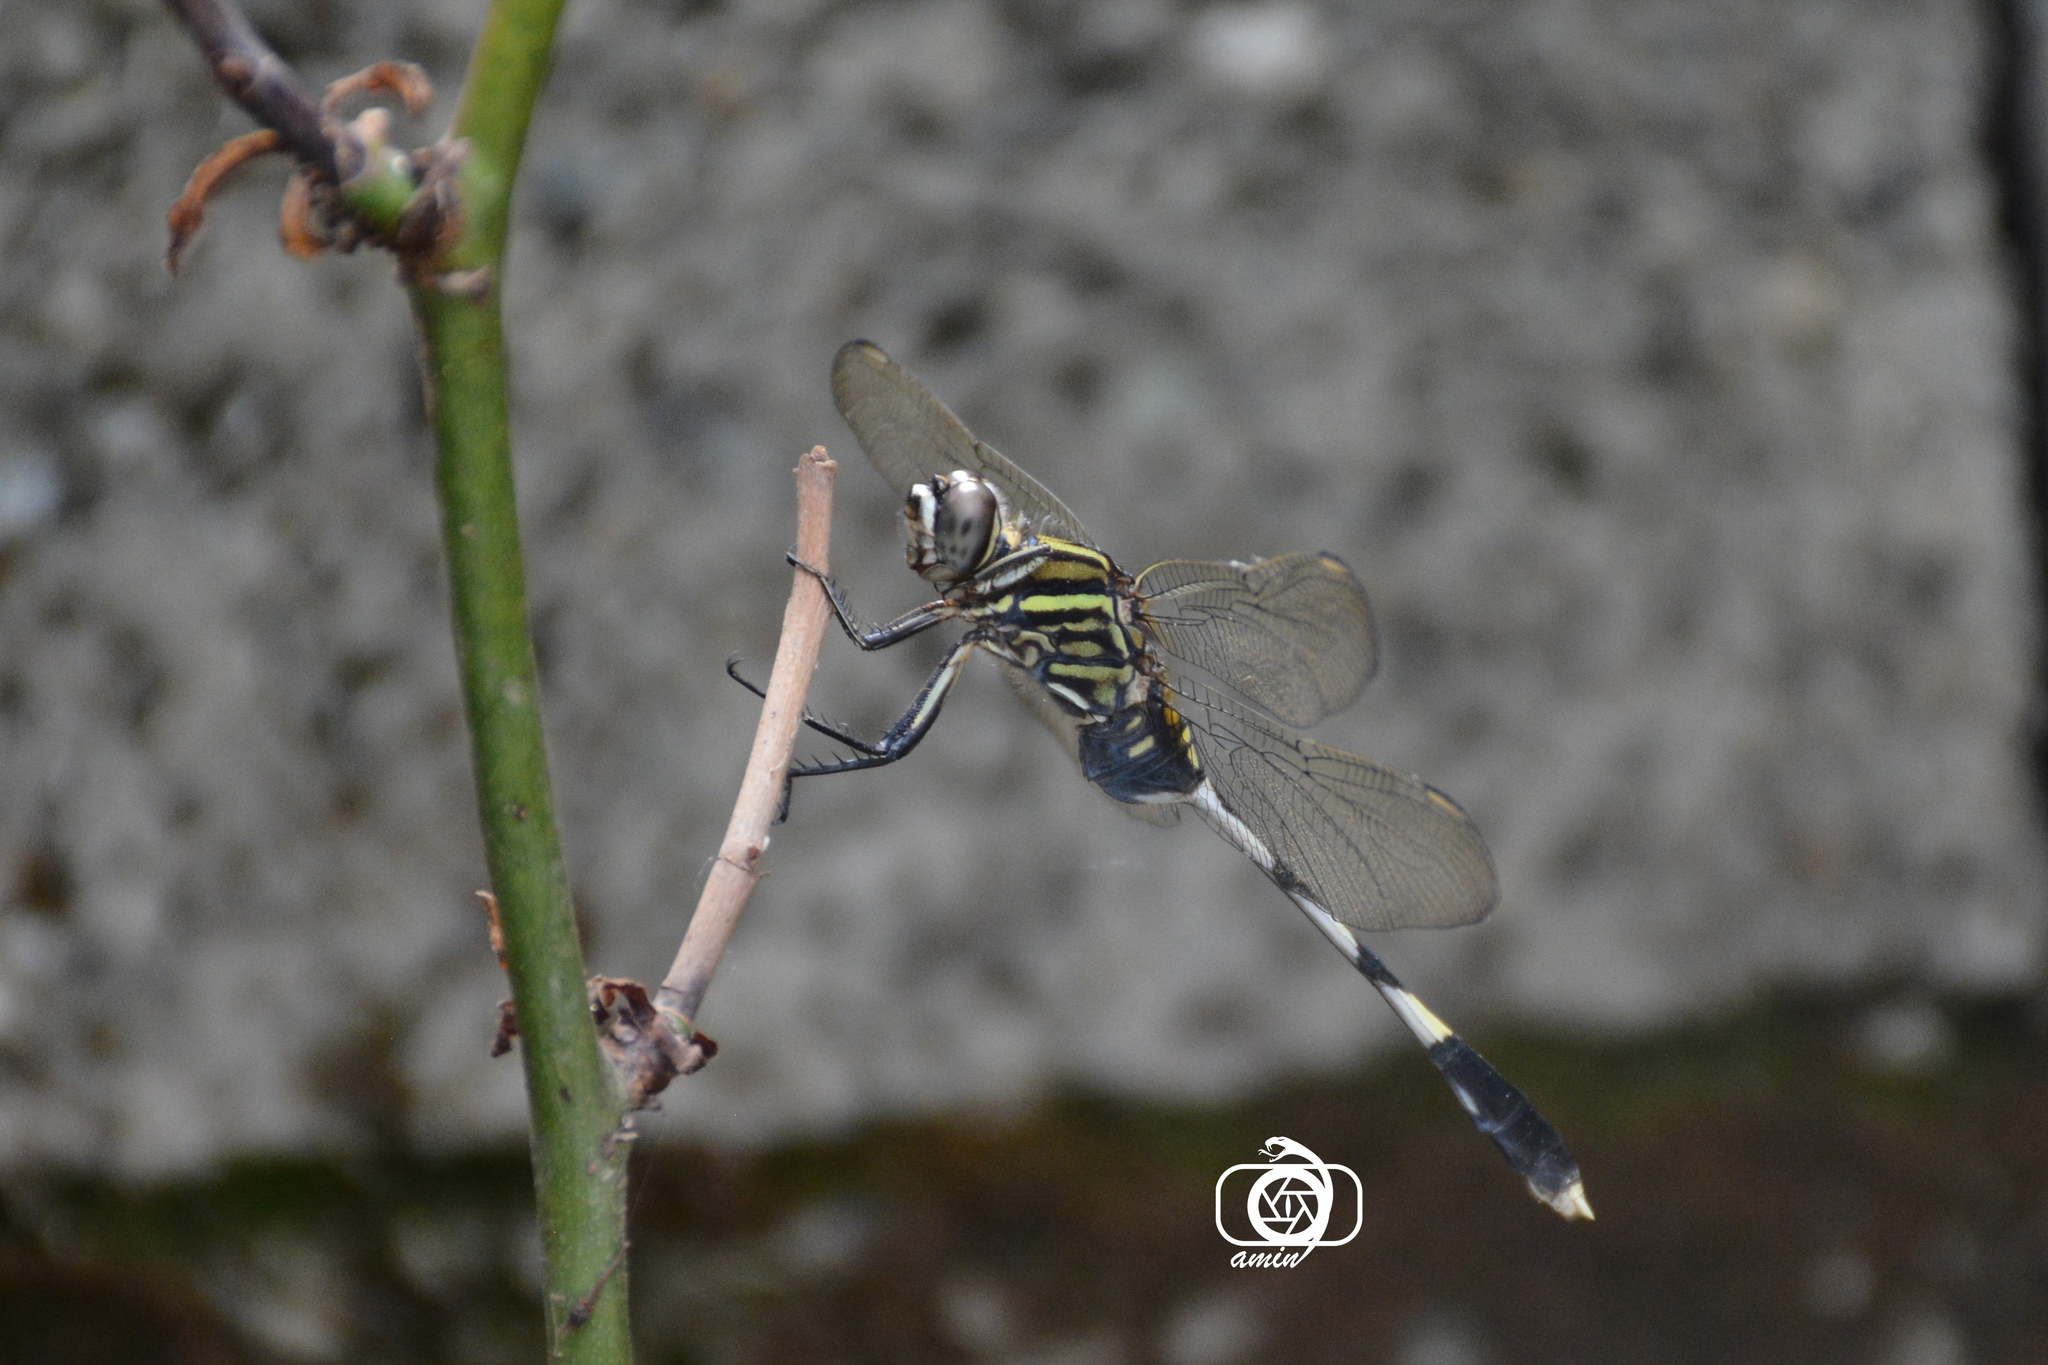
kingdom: Animalia
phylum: Arthropoda
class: Insecta
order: Odonata
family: Libellulidae
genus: Orthetrum
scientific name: Orthetrum sabina
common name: Slender skimmer
